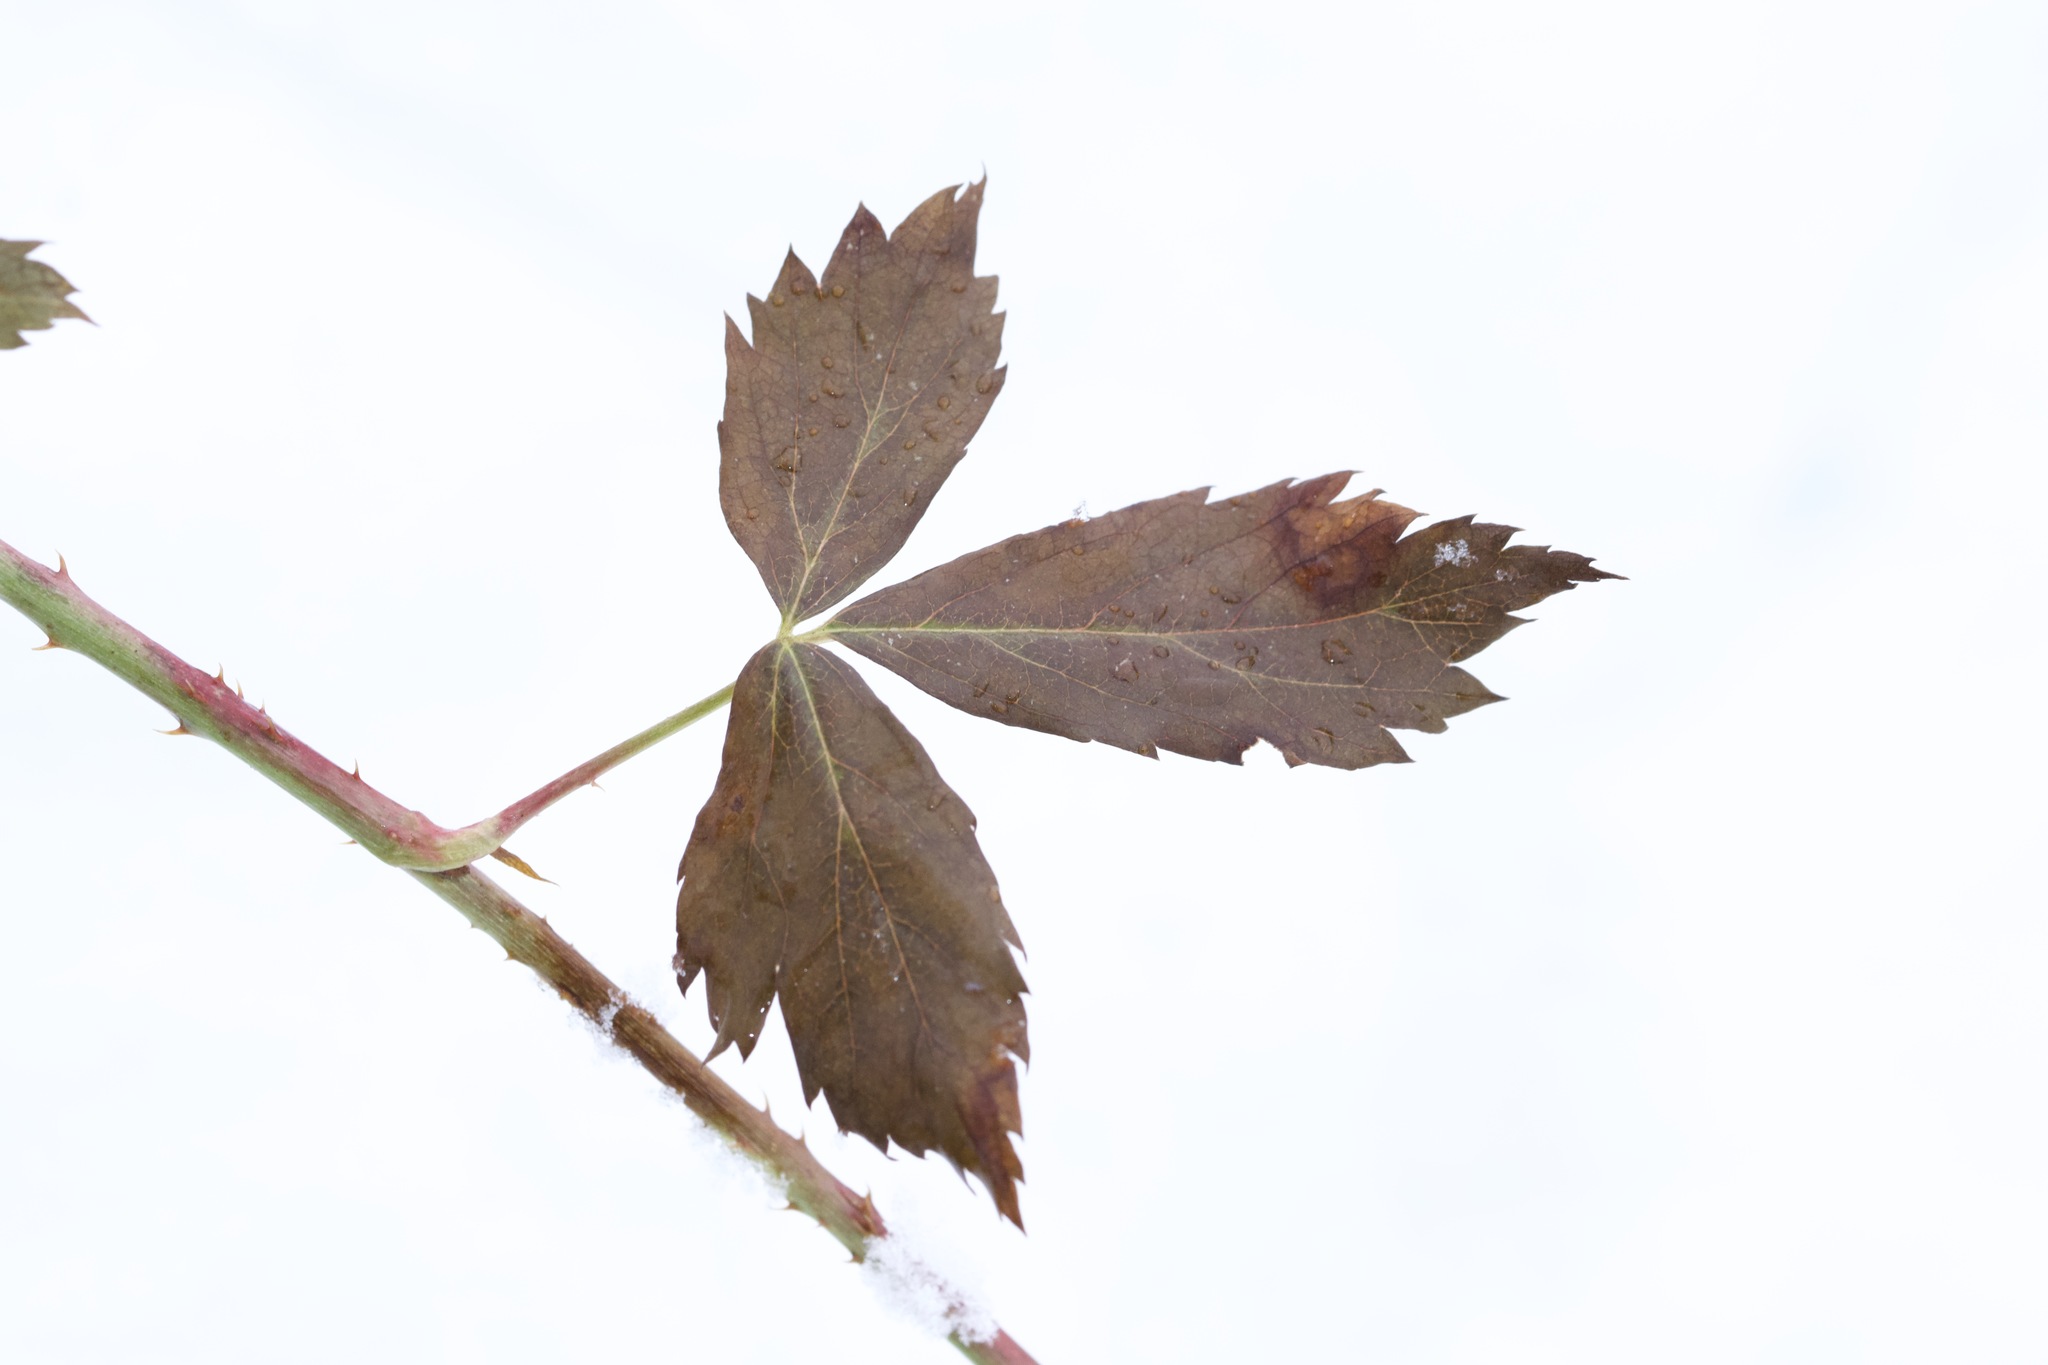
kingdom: Plantae
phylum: Tracheophyta
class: Magnoliopsida
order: Rosales
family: Rosaceae
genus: Rubus
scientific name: Rubus flagellaris
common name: American dewberry
